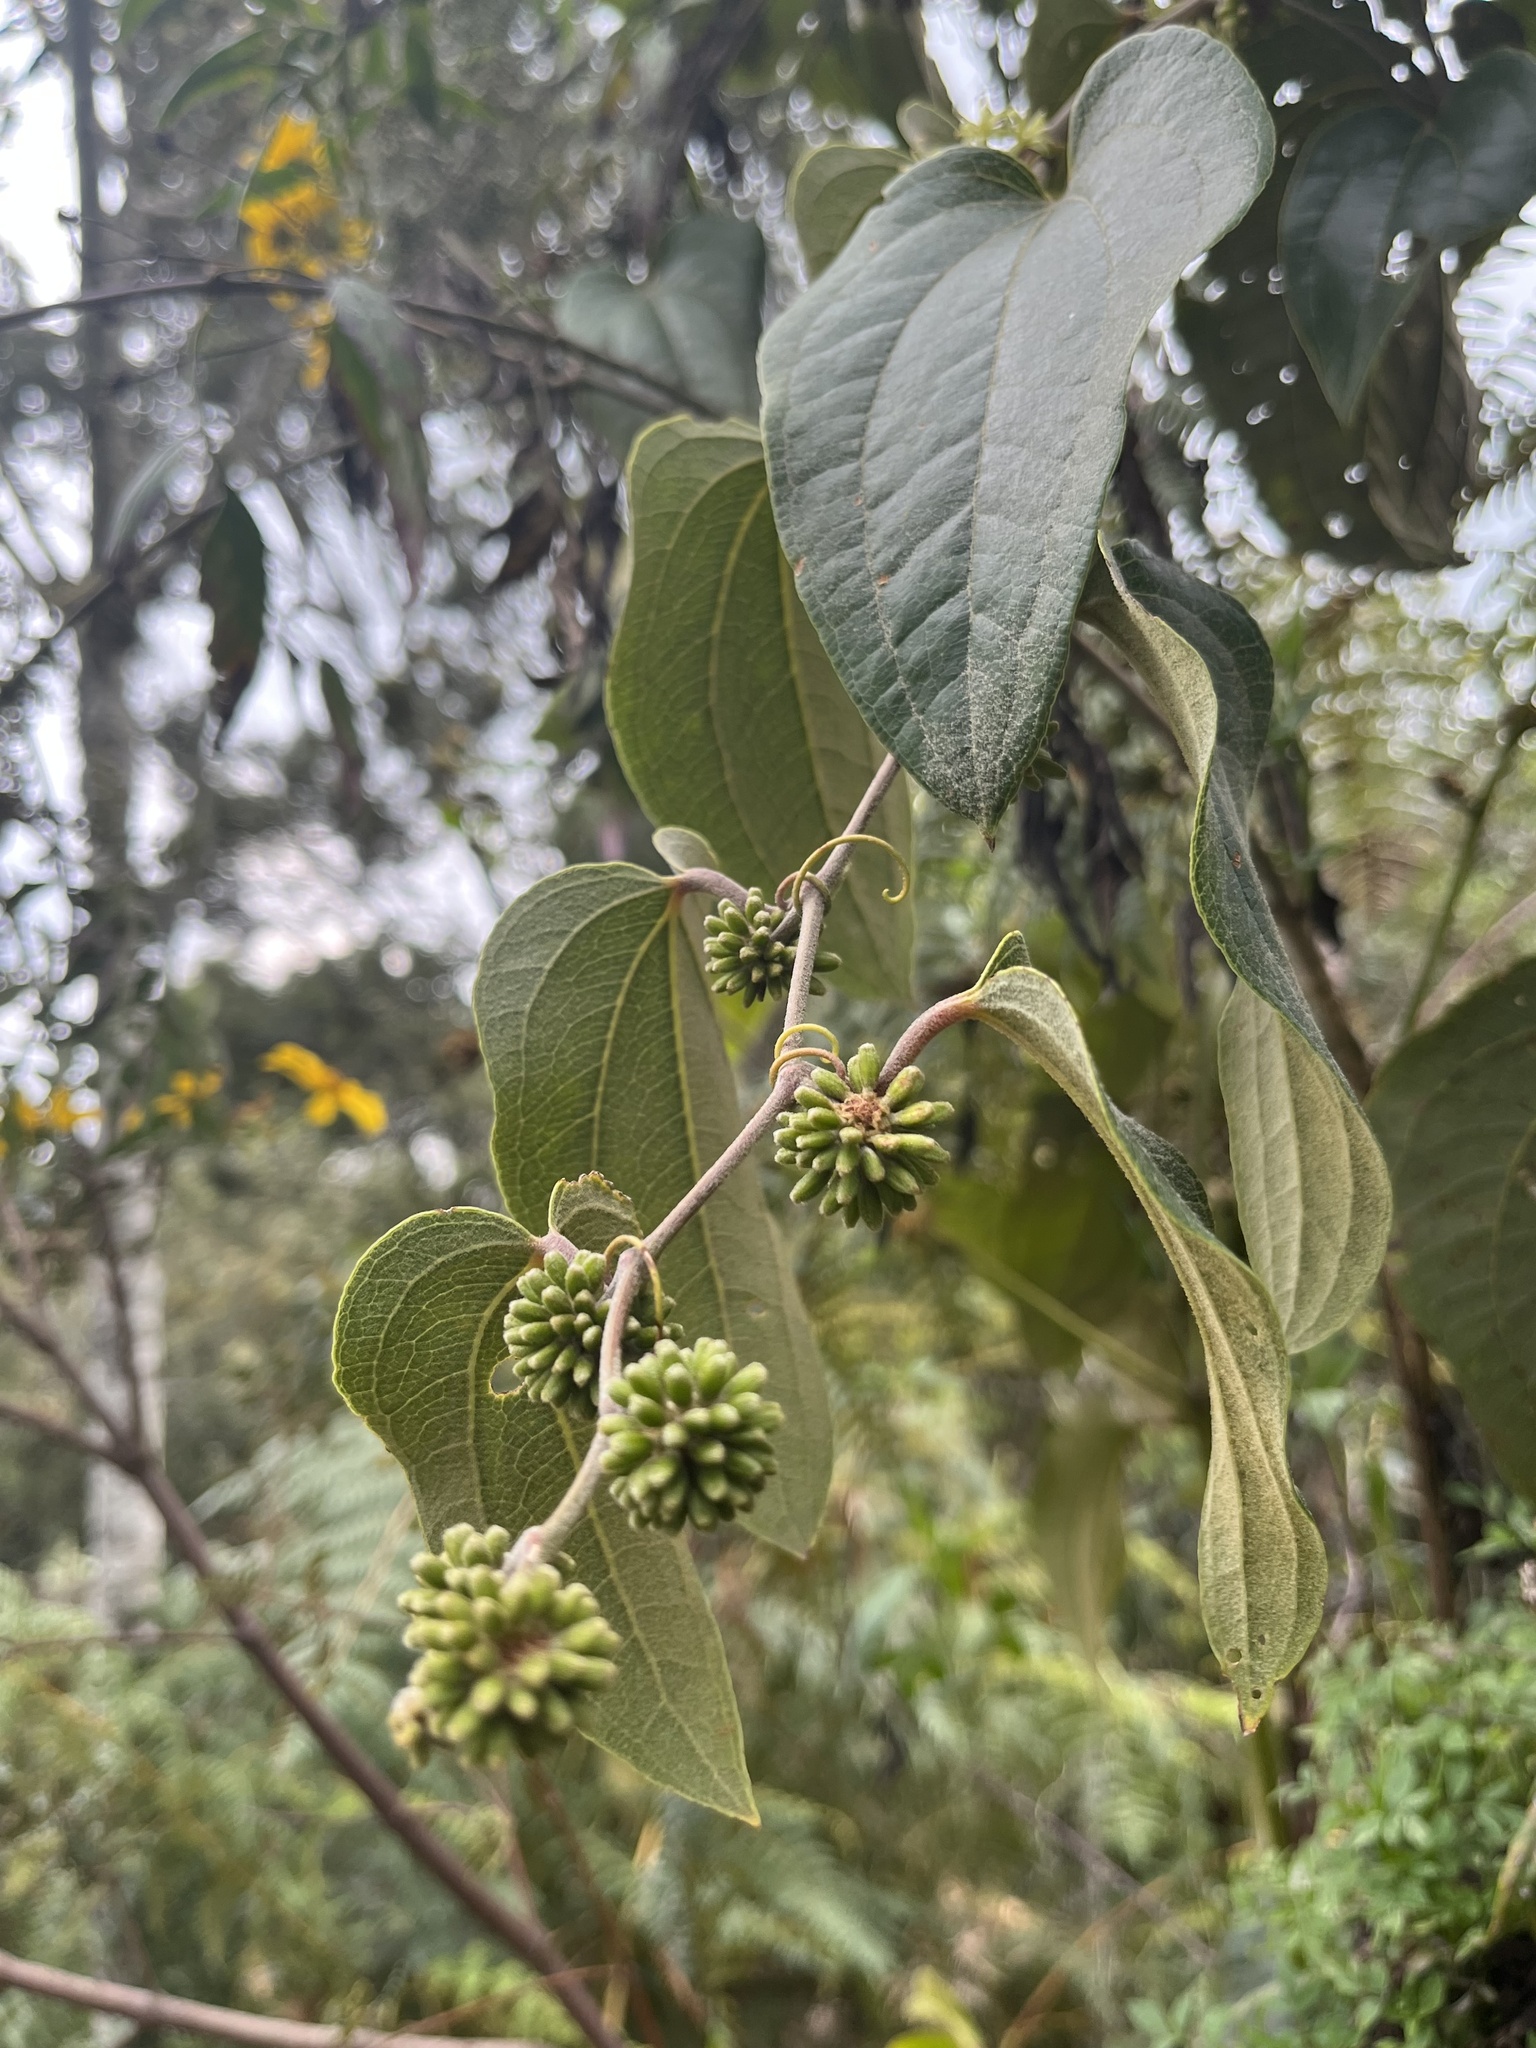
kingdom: Plantae
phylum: Tracheophyta
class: Liliopsida
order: Liliales
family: Smilacaceae
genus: Smilax
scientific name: Smilax tomentosa
